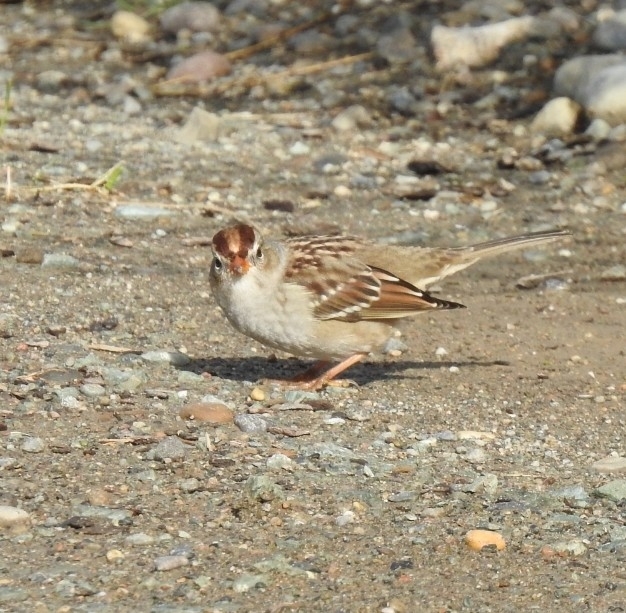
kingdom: Animalia
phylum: Chordata
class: Aves
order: Passeriformes
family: Passerellidae
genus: Zonotrichia
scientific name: Zonotrichia leucophrys
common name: White-crowned sparrow
